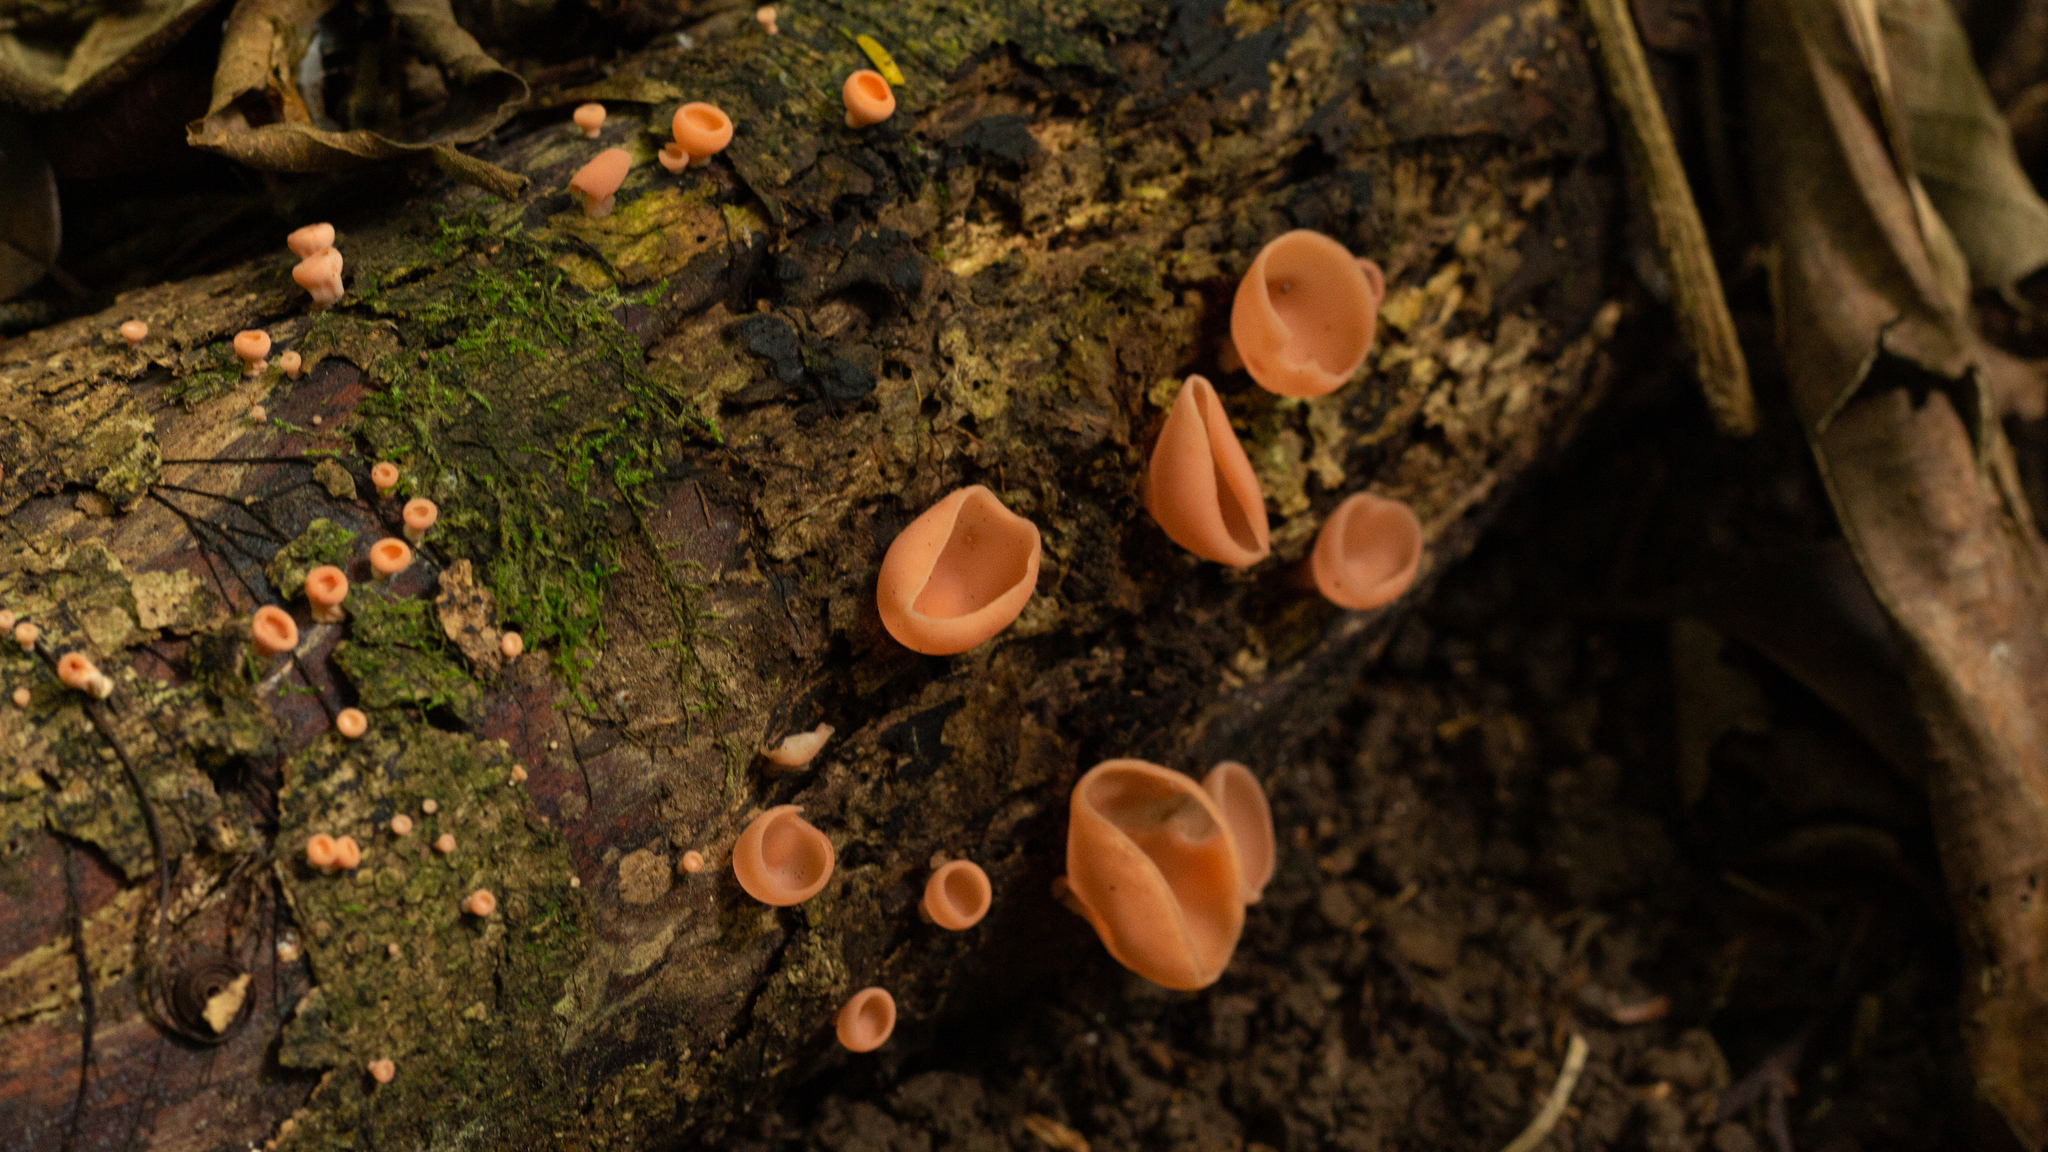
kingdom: Fungi
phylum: Ascomycota
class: Pezizomycetes
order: Pezizales
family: Sarcoscyphaceae
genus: Cookeina
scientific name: Cookeina venezuelae
